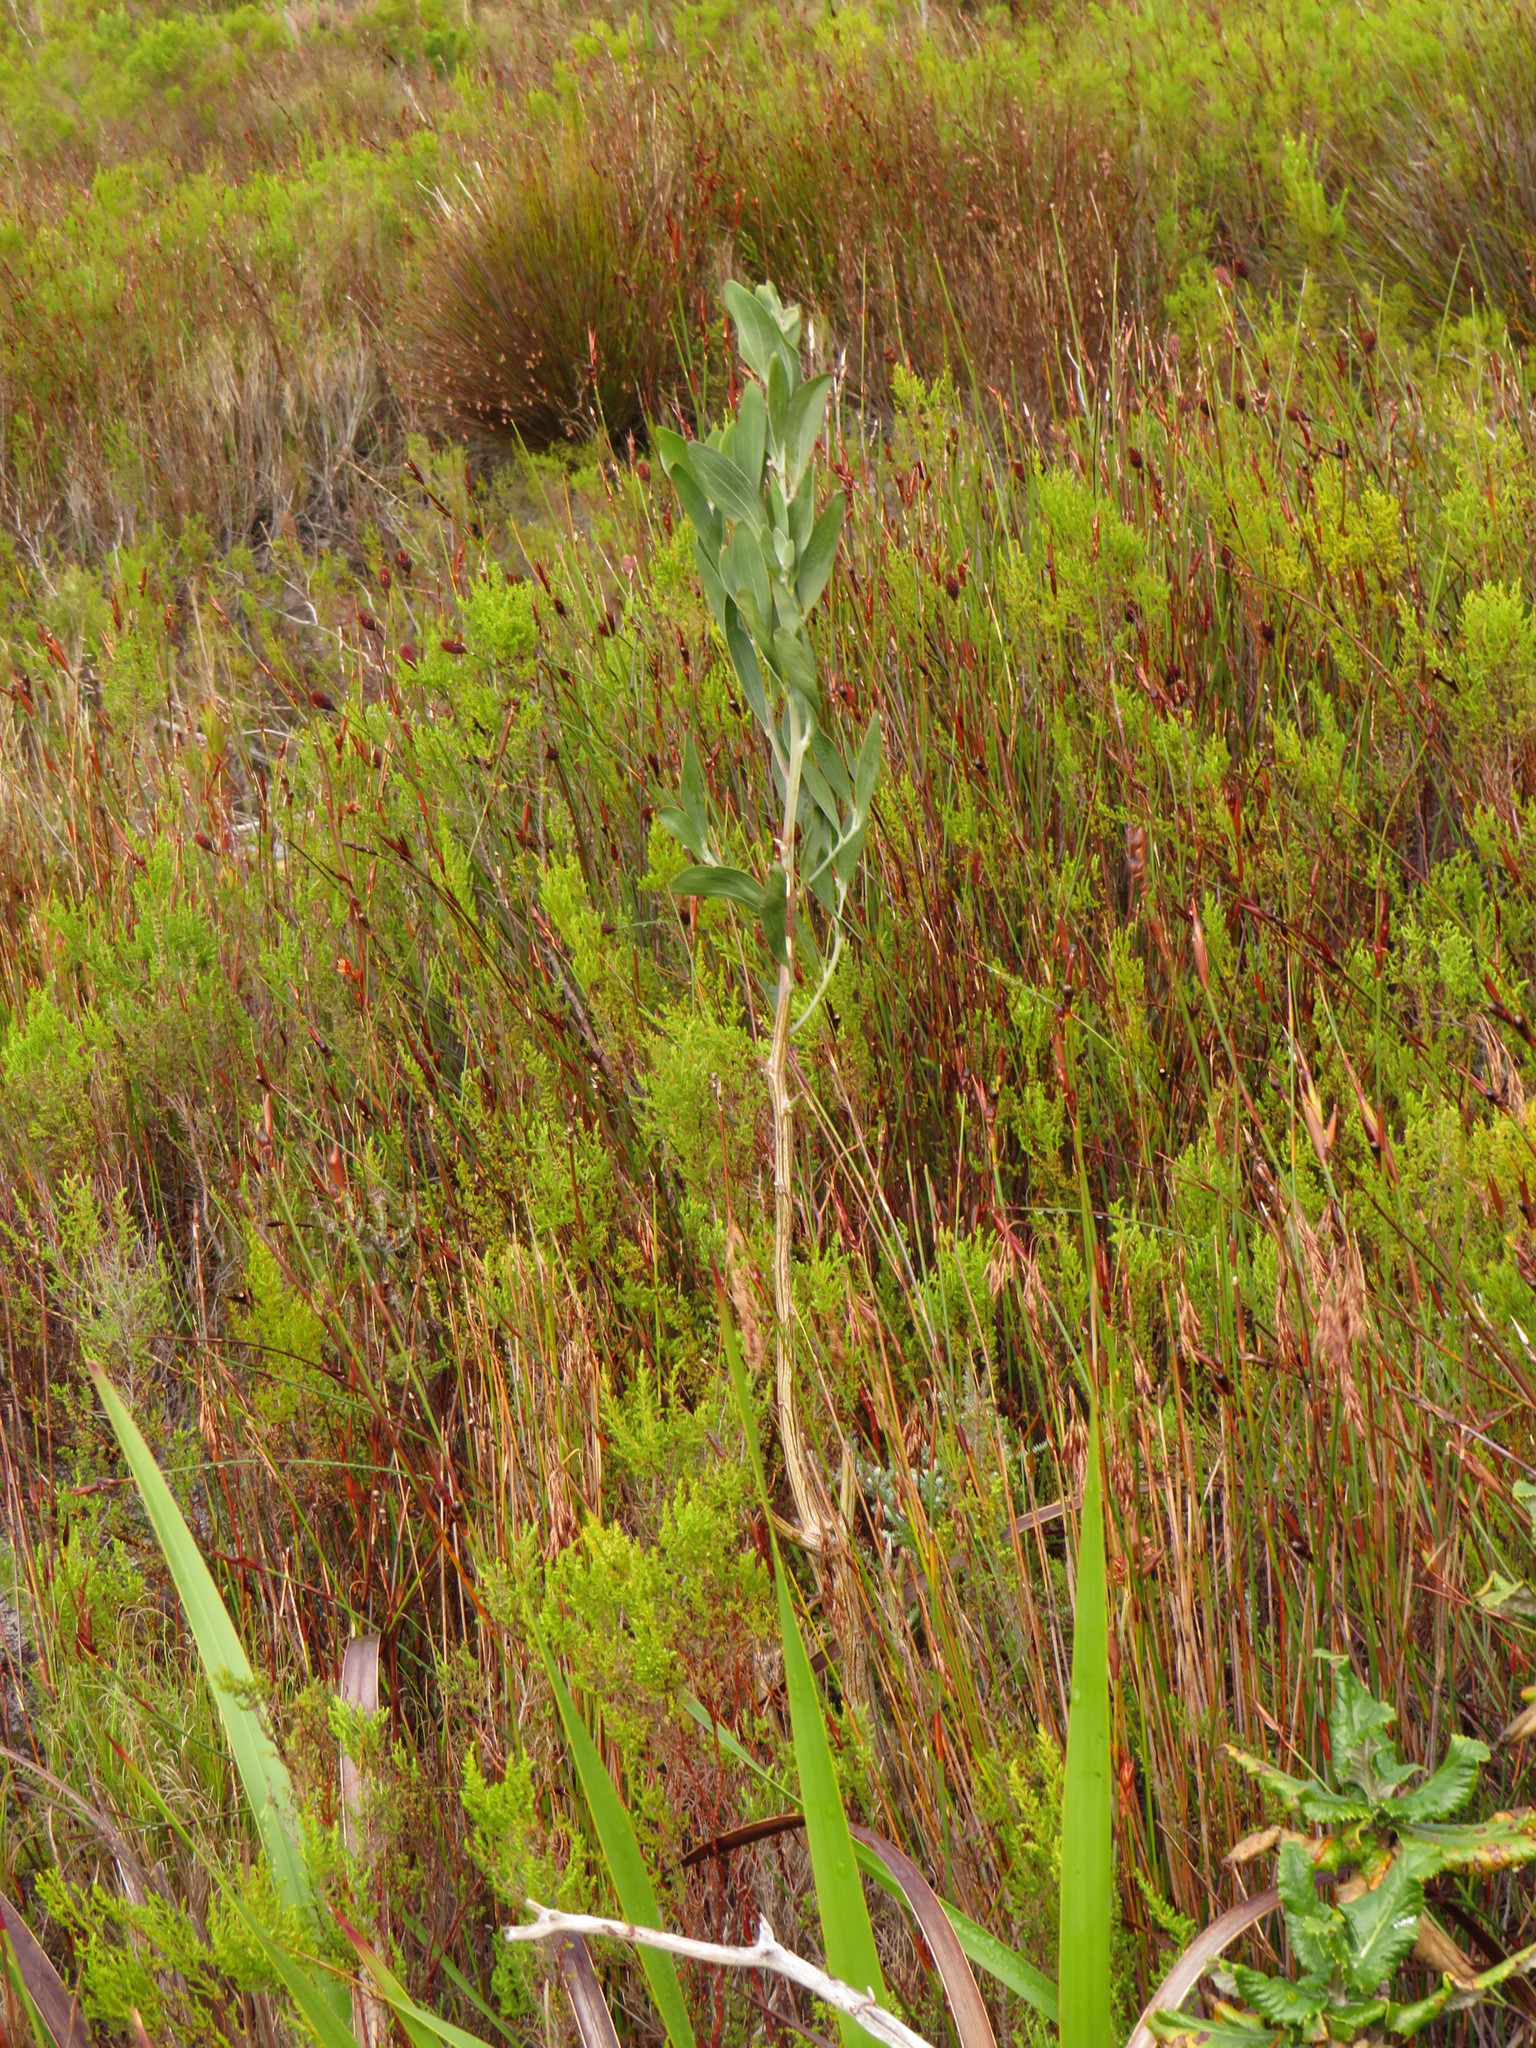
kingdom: Plantae
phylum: Tracheophyta
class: Magnoliopsida
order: Fabales
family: Fabaceae
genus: Acacia
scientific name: Acacia melanoxylon
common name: Blackwood
